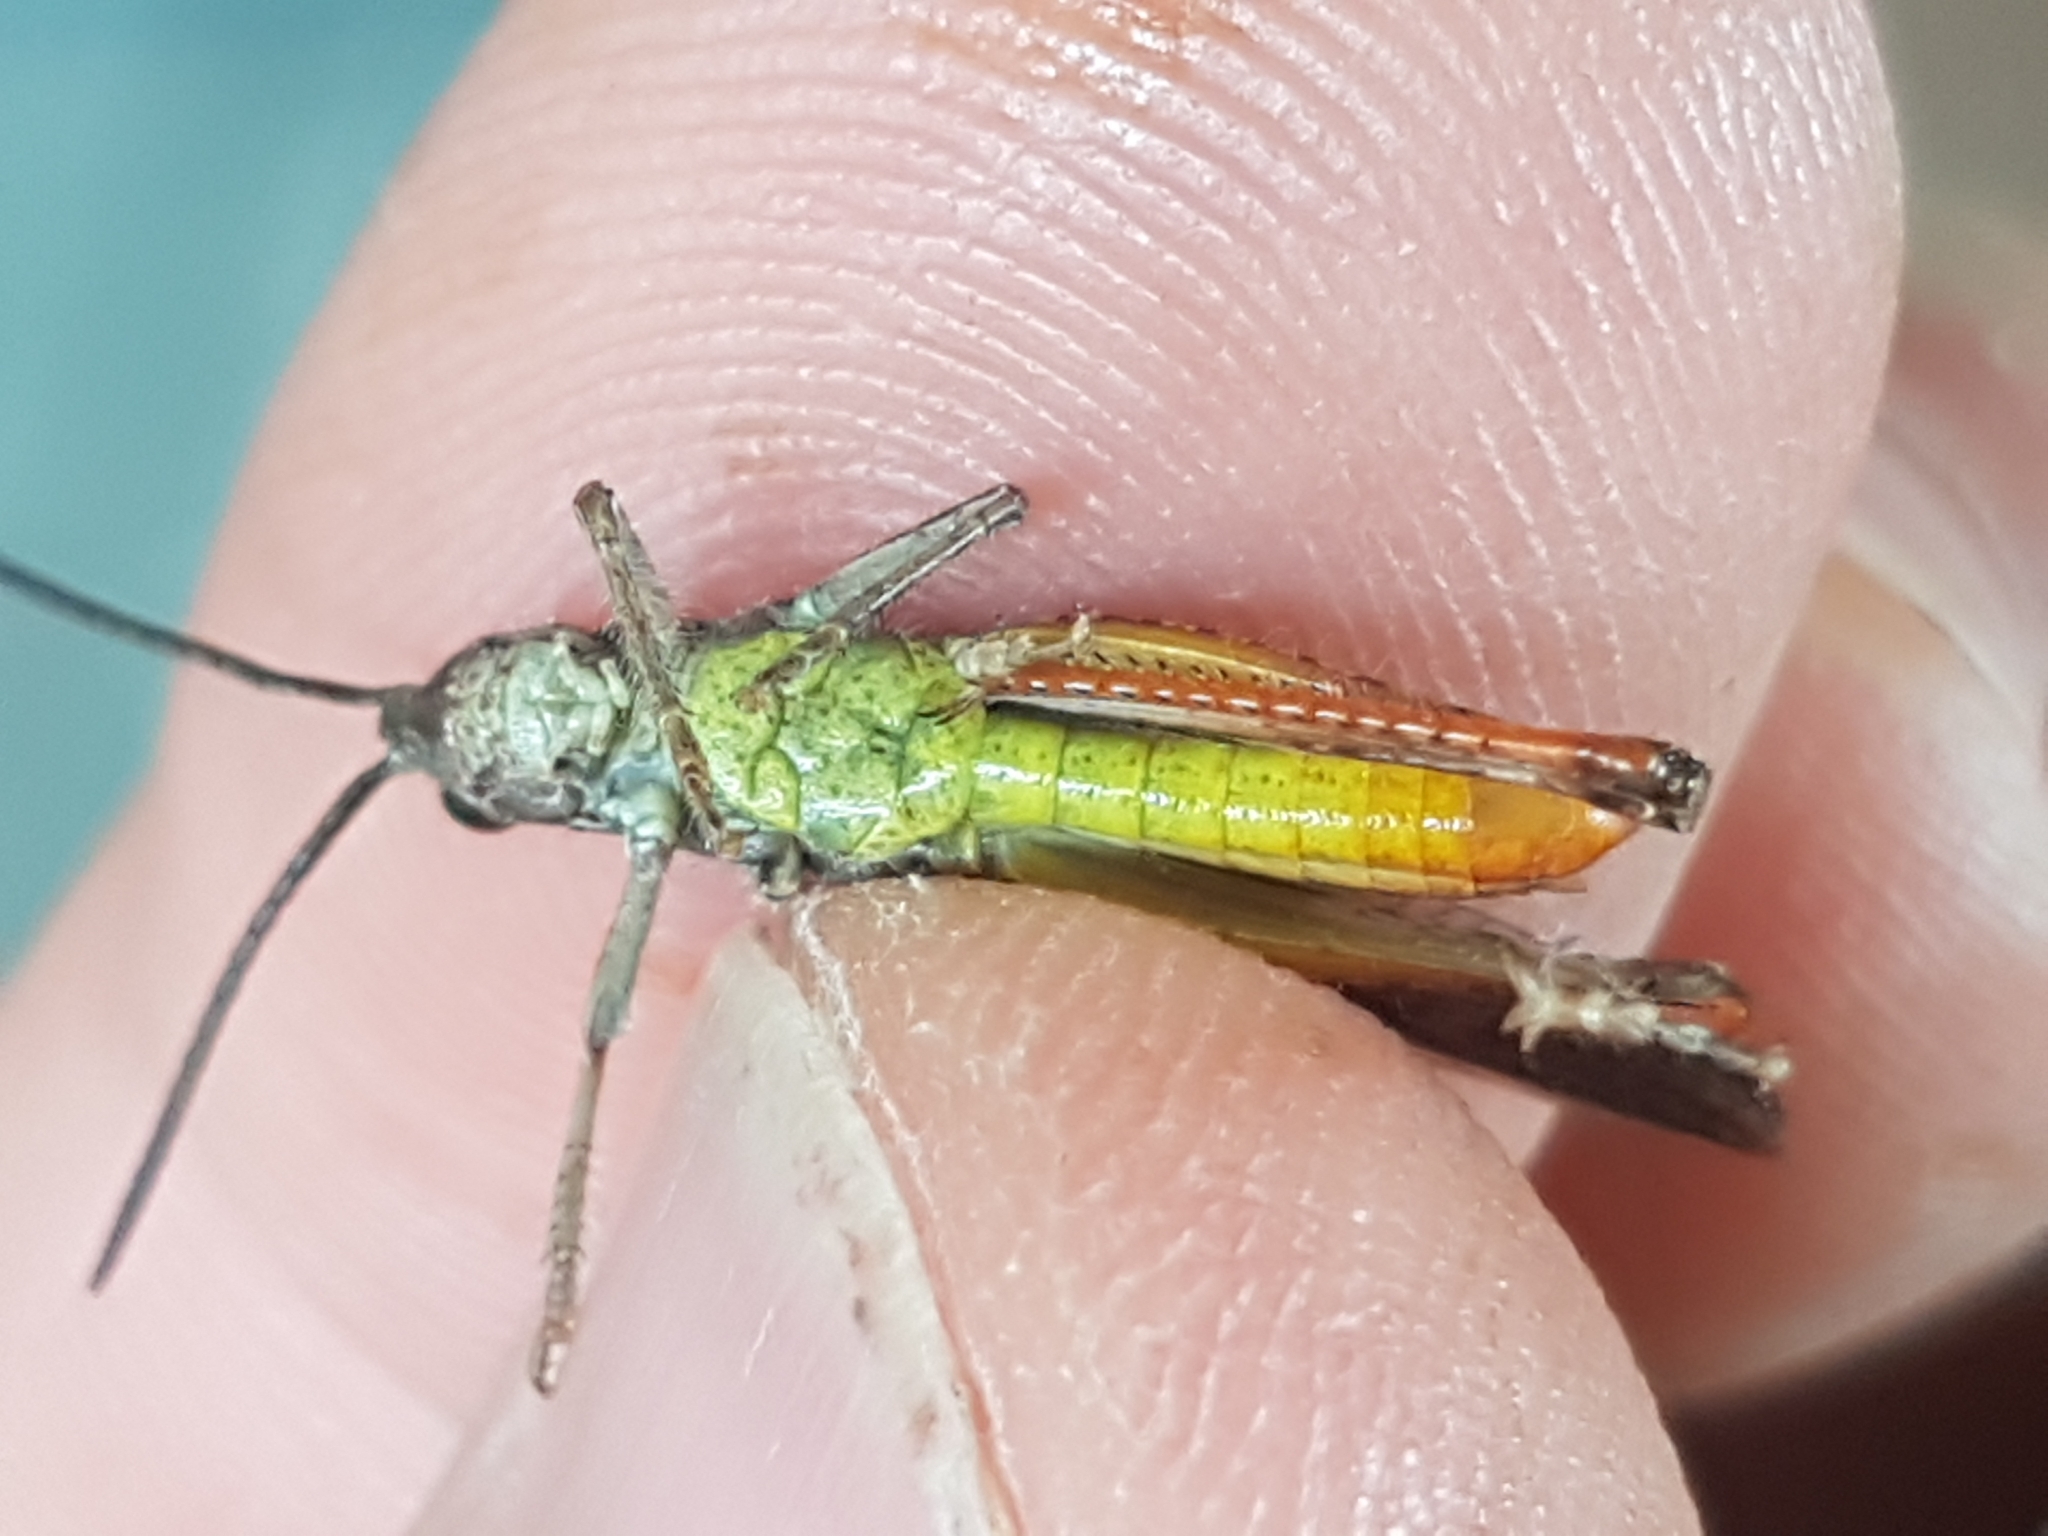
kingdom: Animalia
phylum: Arthropoda
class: Insecta
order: Orthoptera
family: Acrididae
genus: Chorthippus
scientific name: Chorthippus biguttulus
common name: Bow-winged grasshopper
